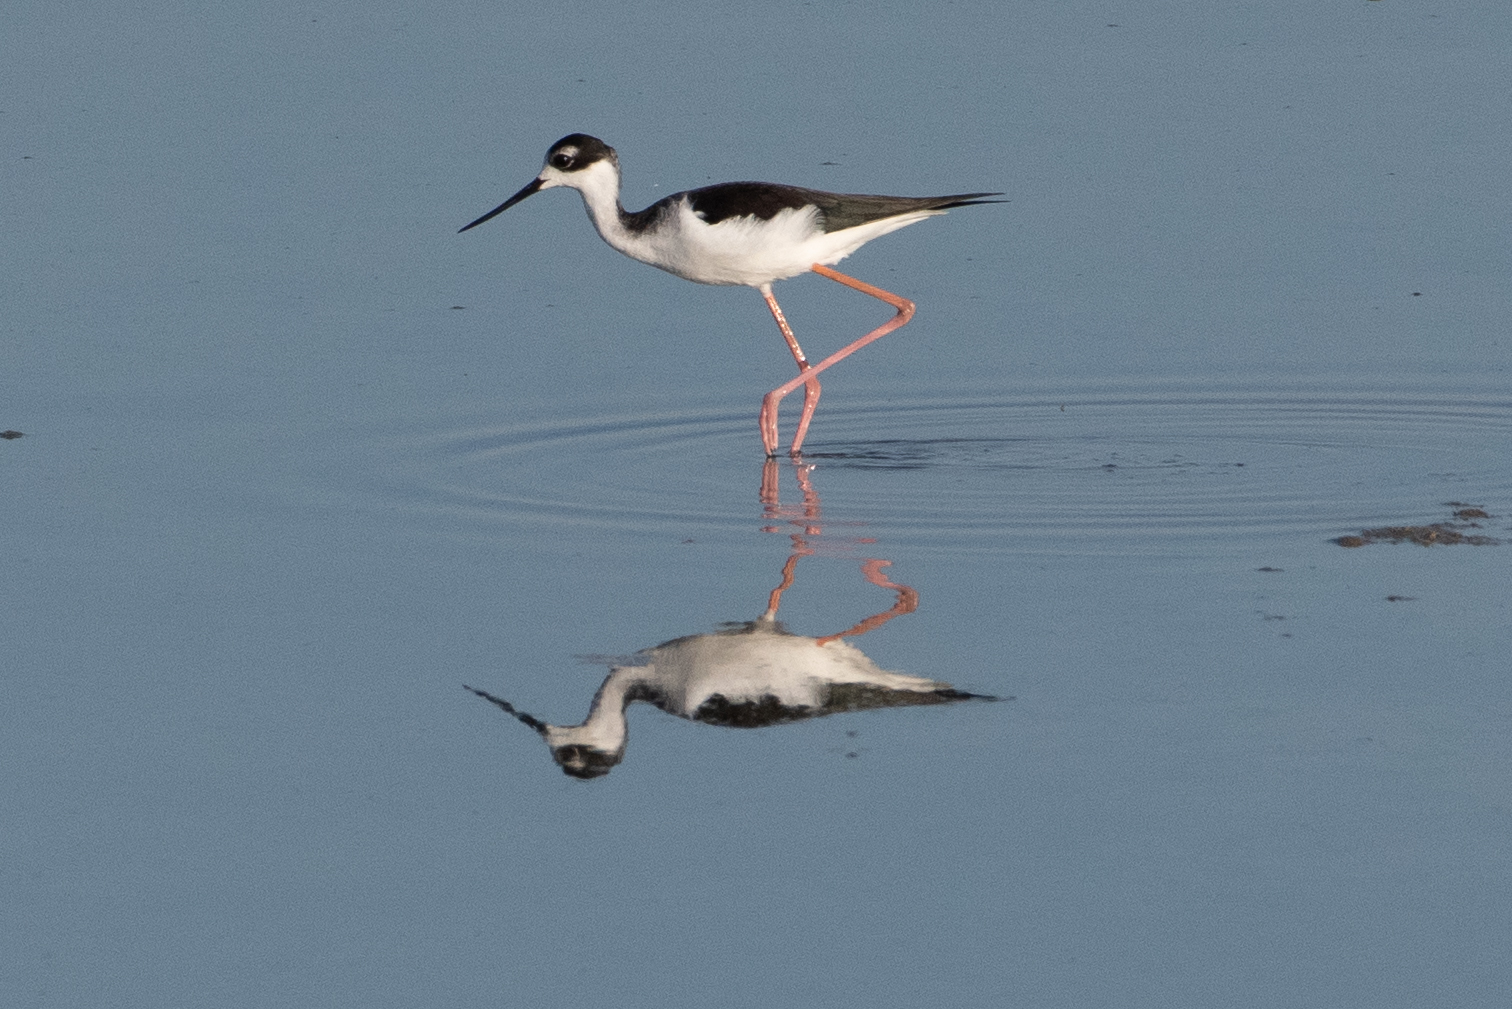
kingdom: Animalia
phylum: Chordata
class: Aves
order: Charadriiformes
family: Recurvirostridae
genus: Himantopus
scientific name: Himantopus mexicanus
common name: Black-necked stilt
